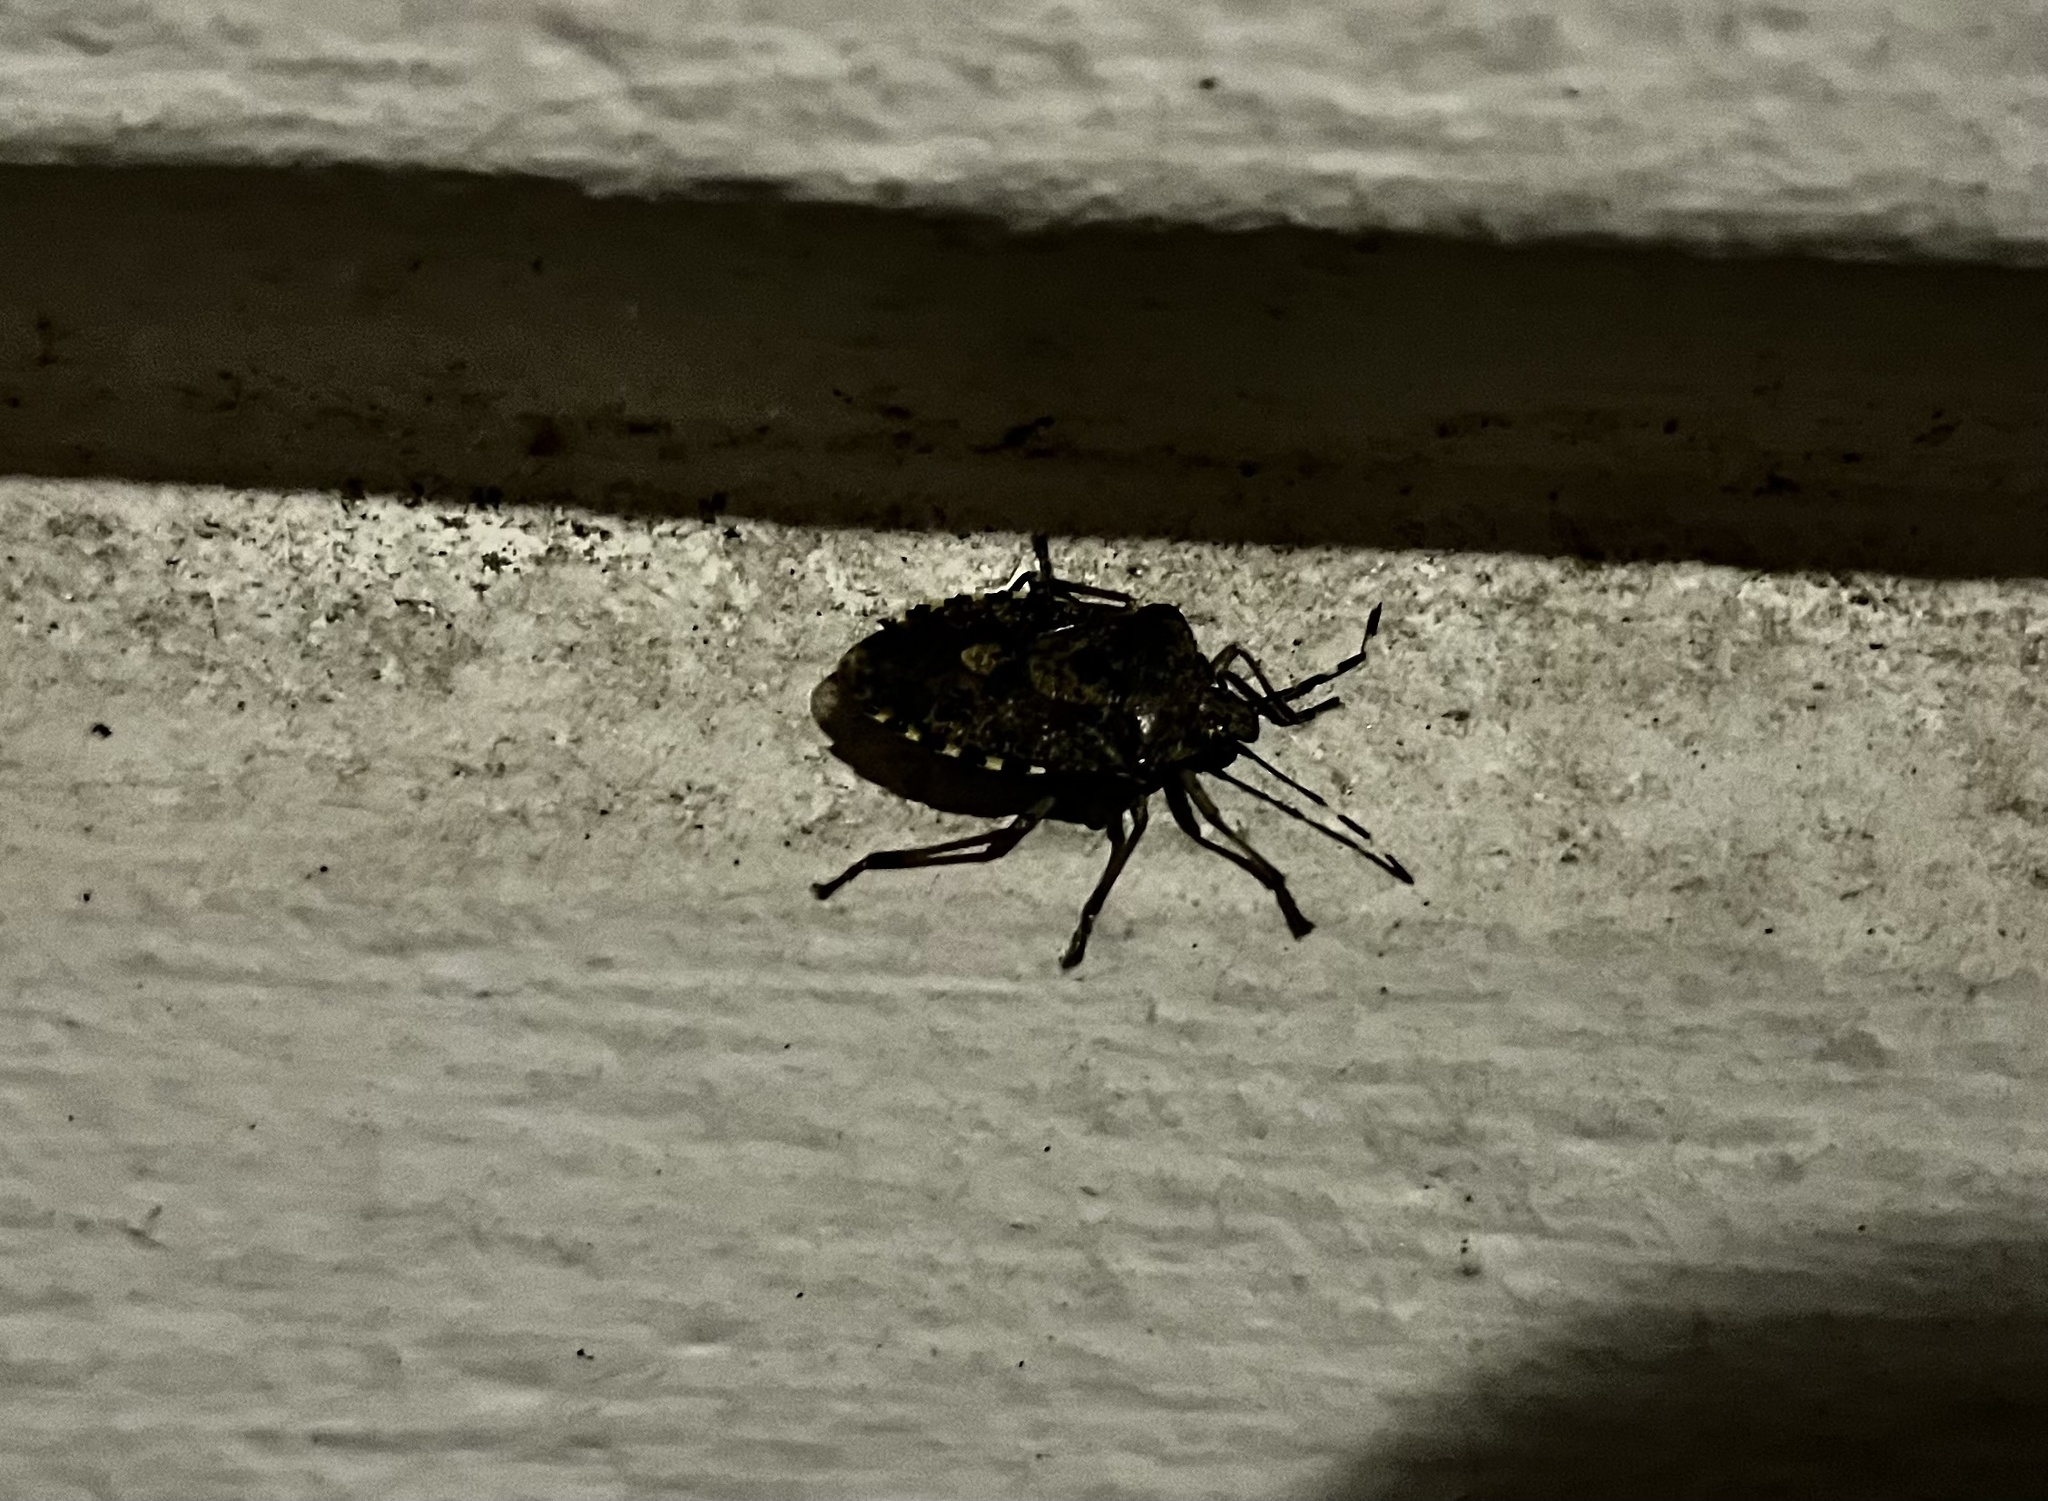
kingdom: Animalia
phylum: Arthropoda
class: Insecta
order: Hemiptera
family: Pentatomidae
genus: Rhaphigaster
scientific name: Rhaphigaster nebulosa
